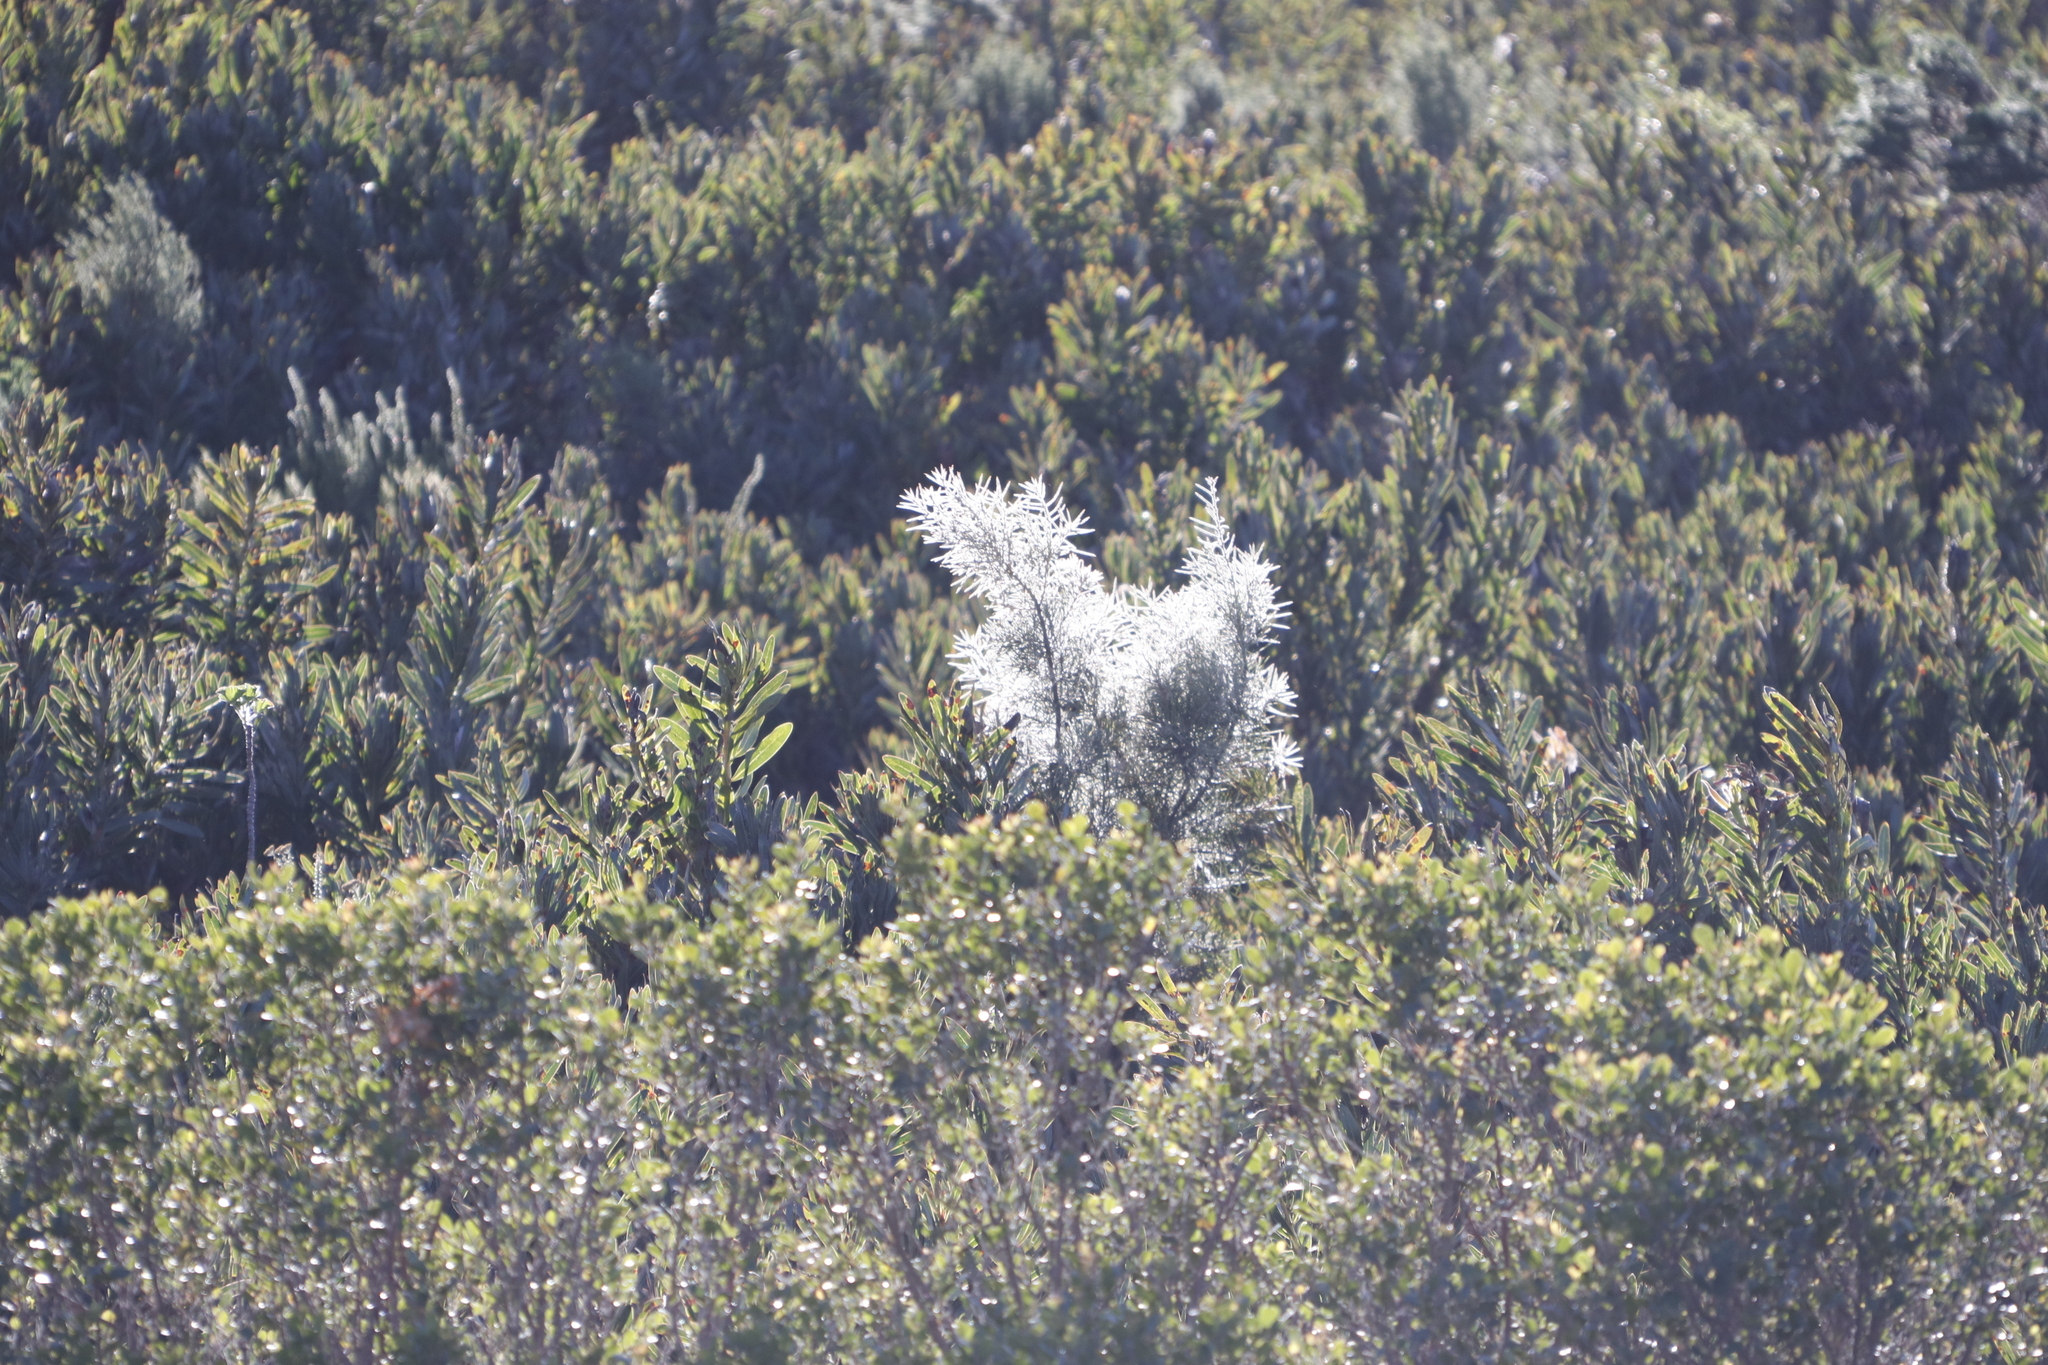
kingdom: Plantae
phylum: Tracheophyta
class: Magnoliopsida
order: Proteales
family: Proteaceae
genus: Hakea
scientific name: Hakea gibbosa
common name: Rock hakea
